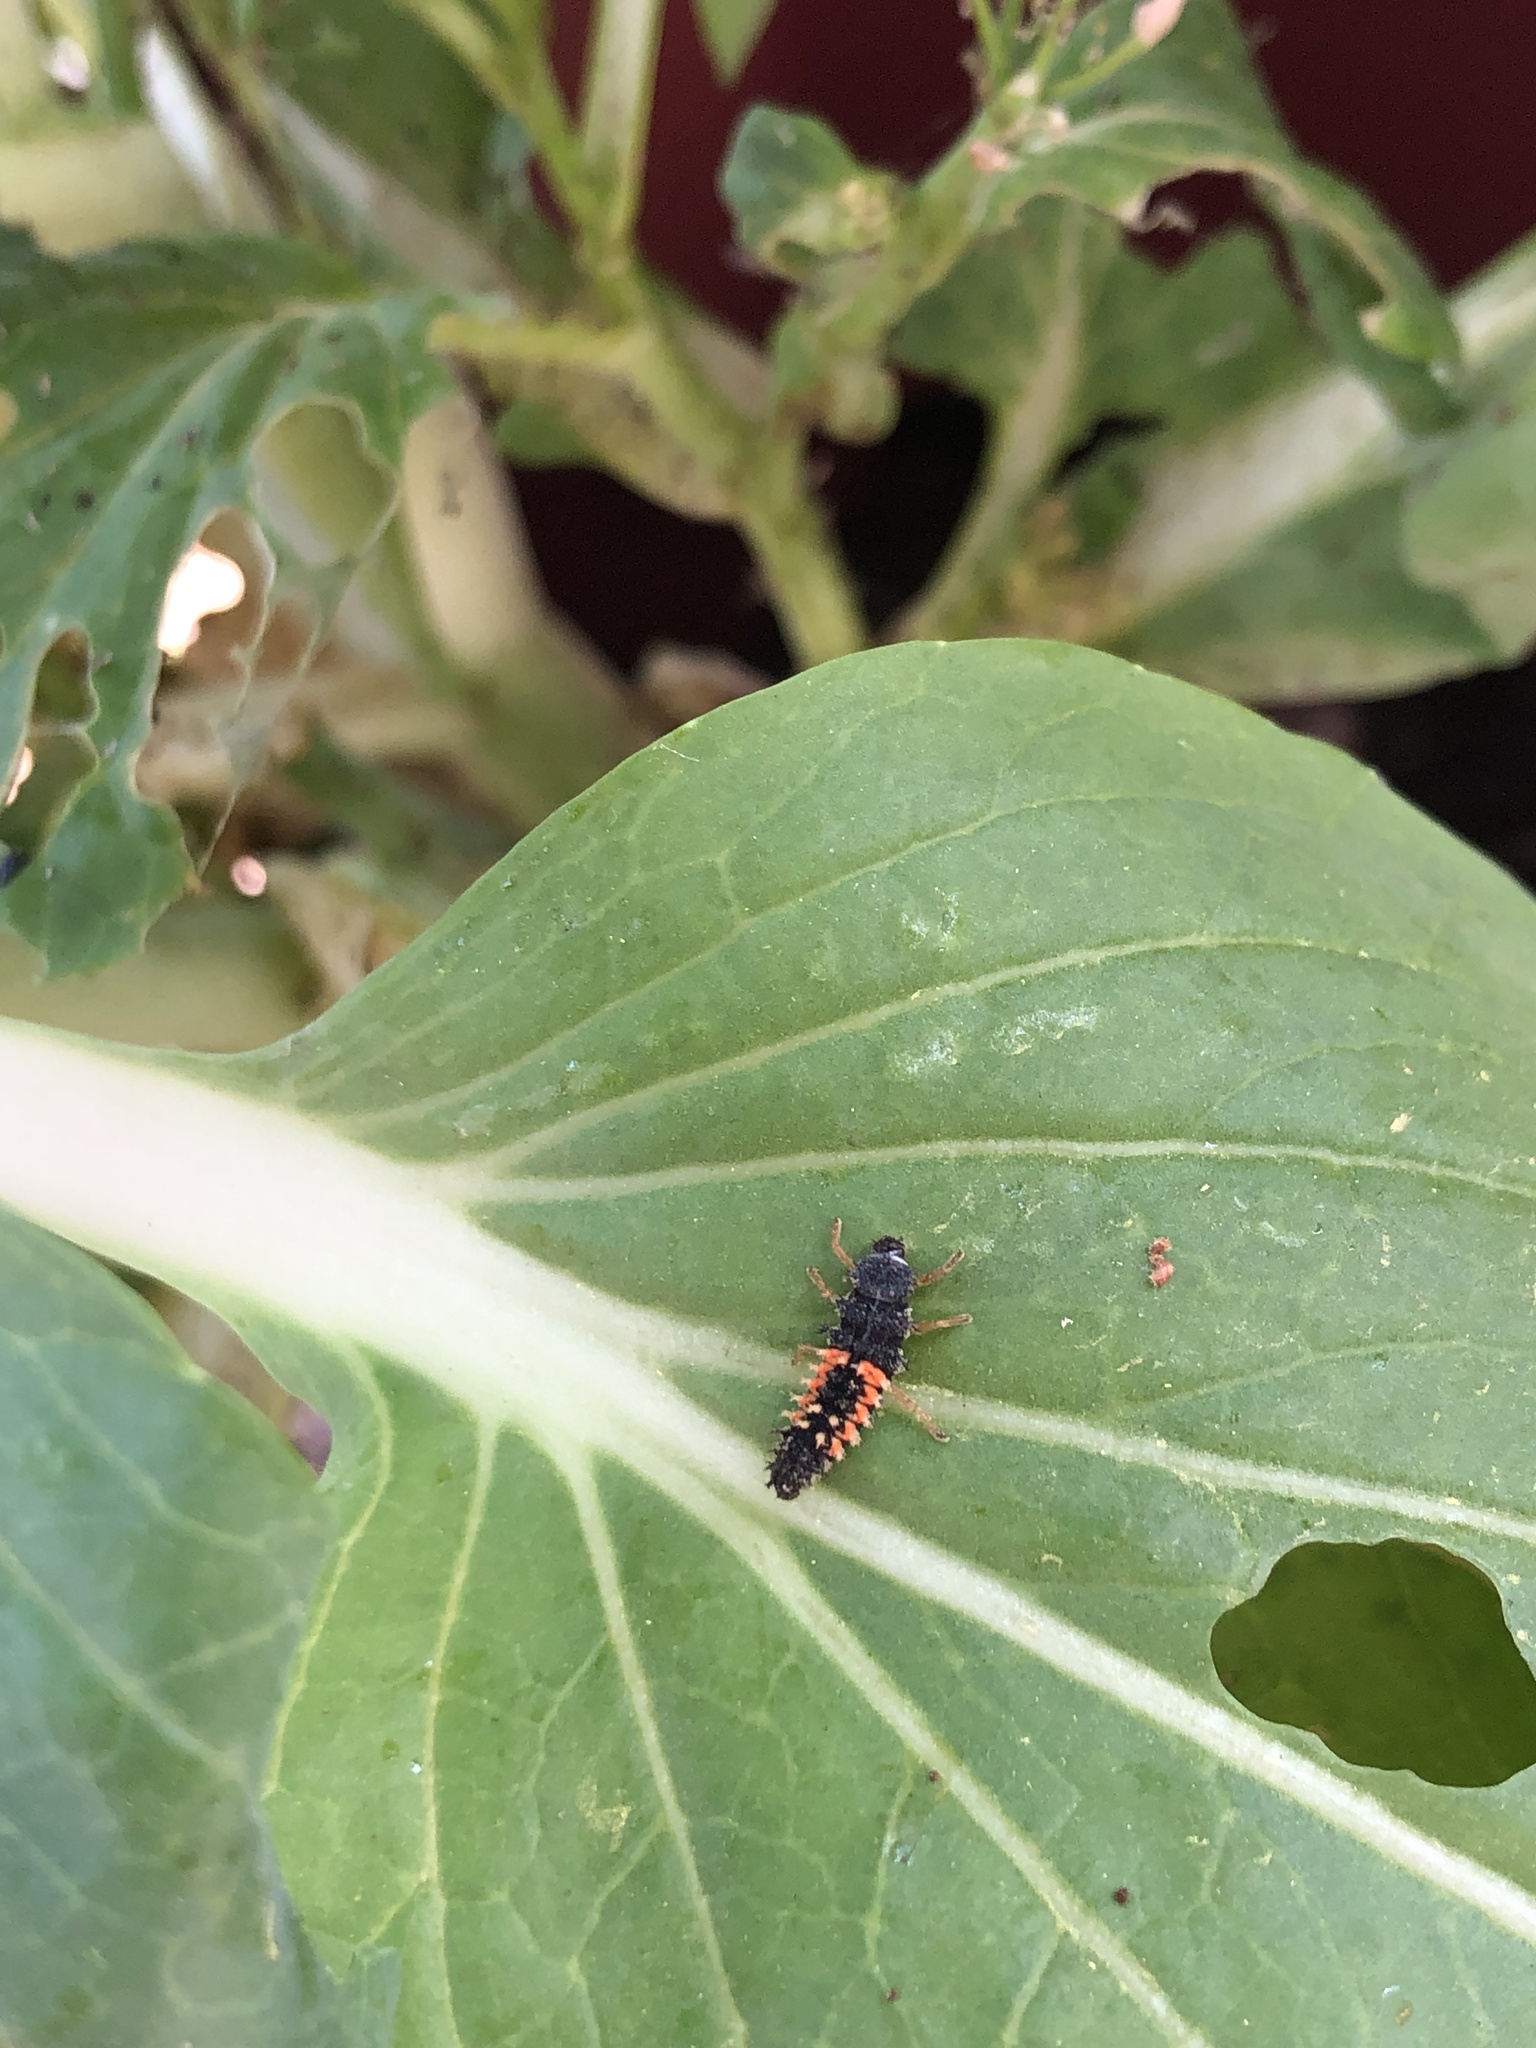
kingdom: Animalia
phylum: Arthropoda
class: Insecta
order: Coleoptera
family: Coccinellidae
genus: Harmonia
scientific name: Harmonia axyridis
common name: Harlequin ladybird
